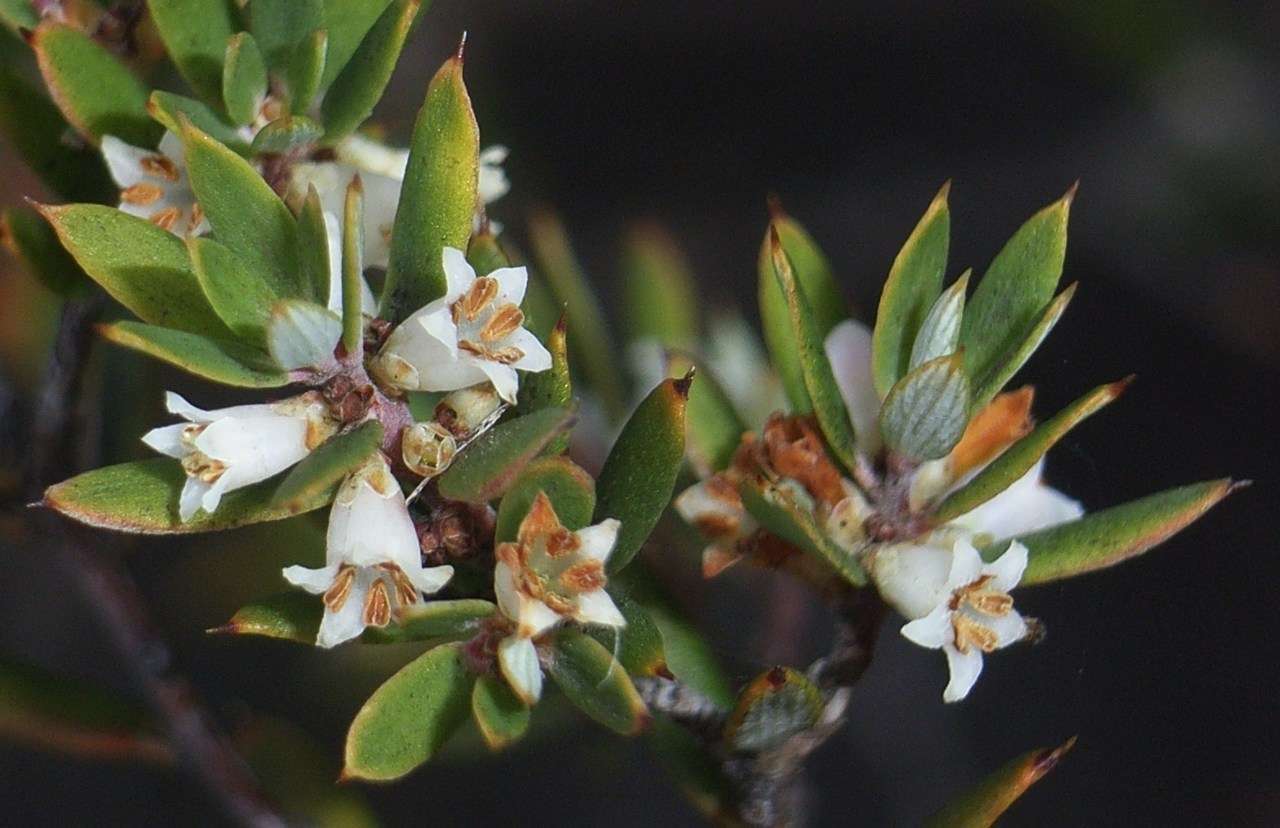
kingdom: Plantae
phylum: Tracheophyta
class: Magnoliopsida
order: Ericales
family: Ericaceae
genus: Monotoca
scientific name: Monotoca scoparia
